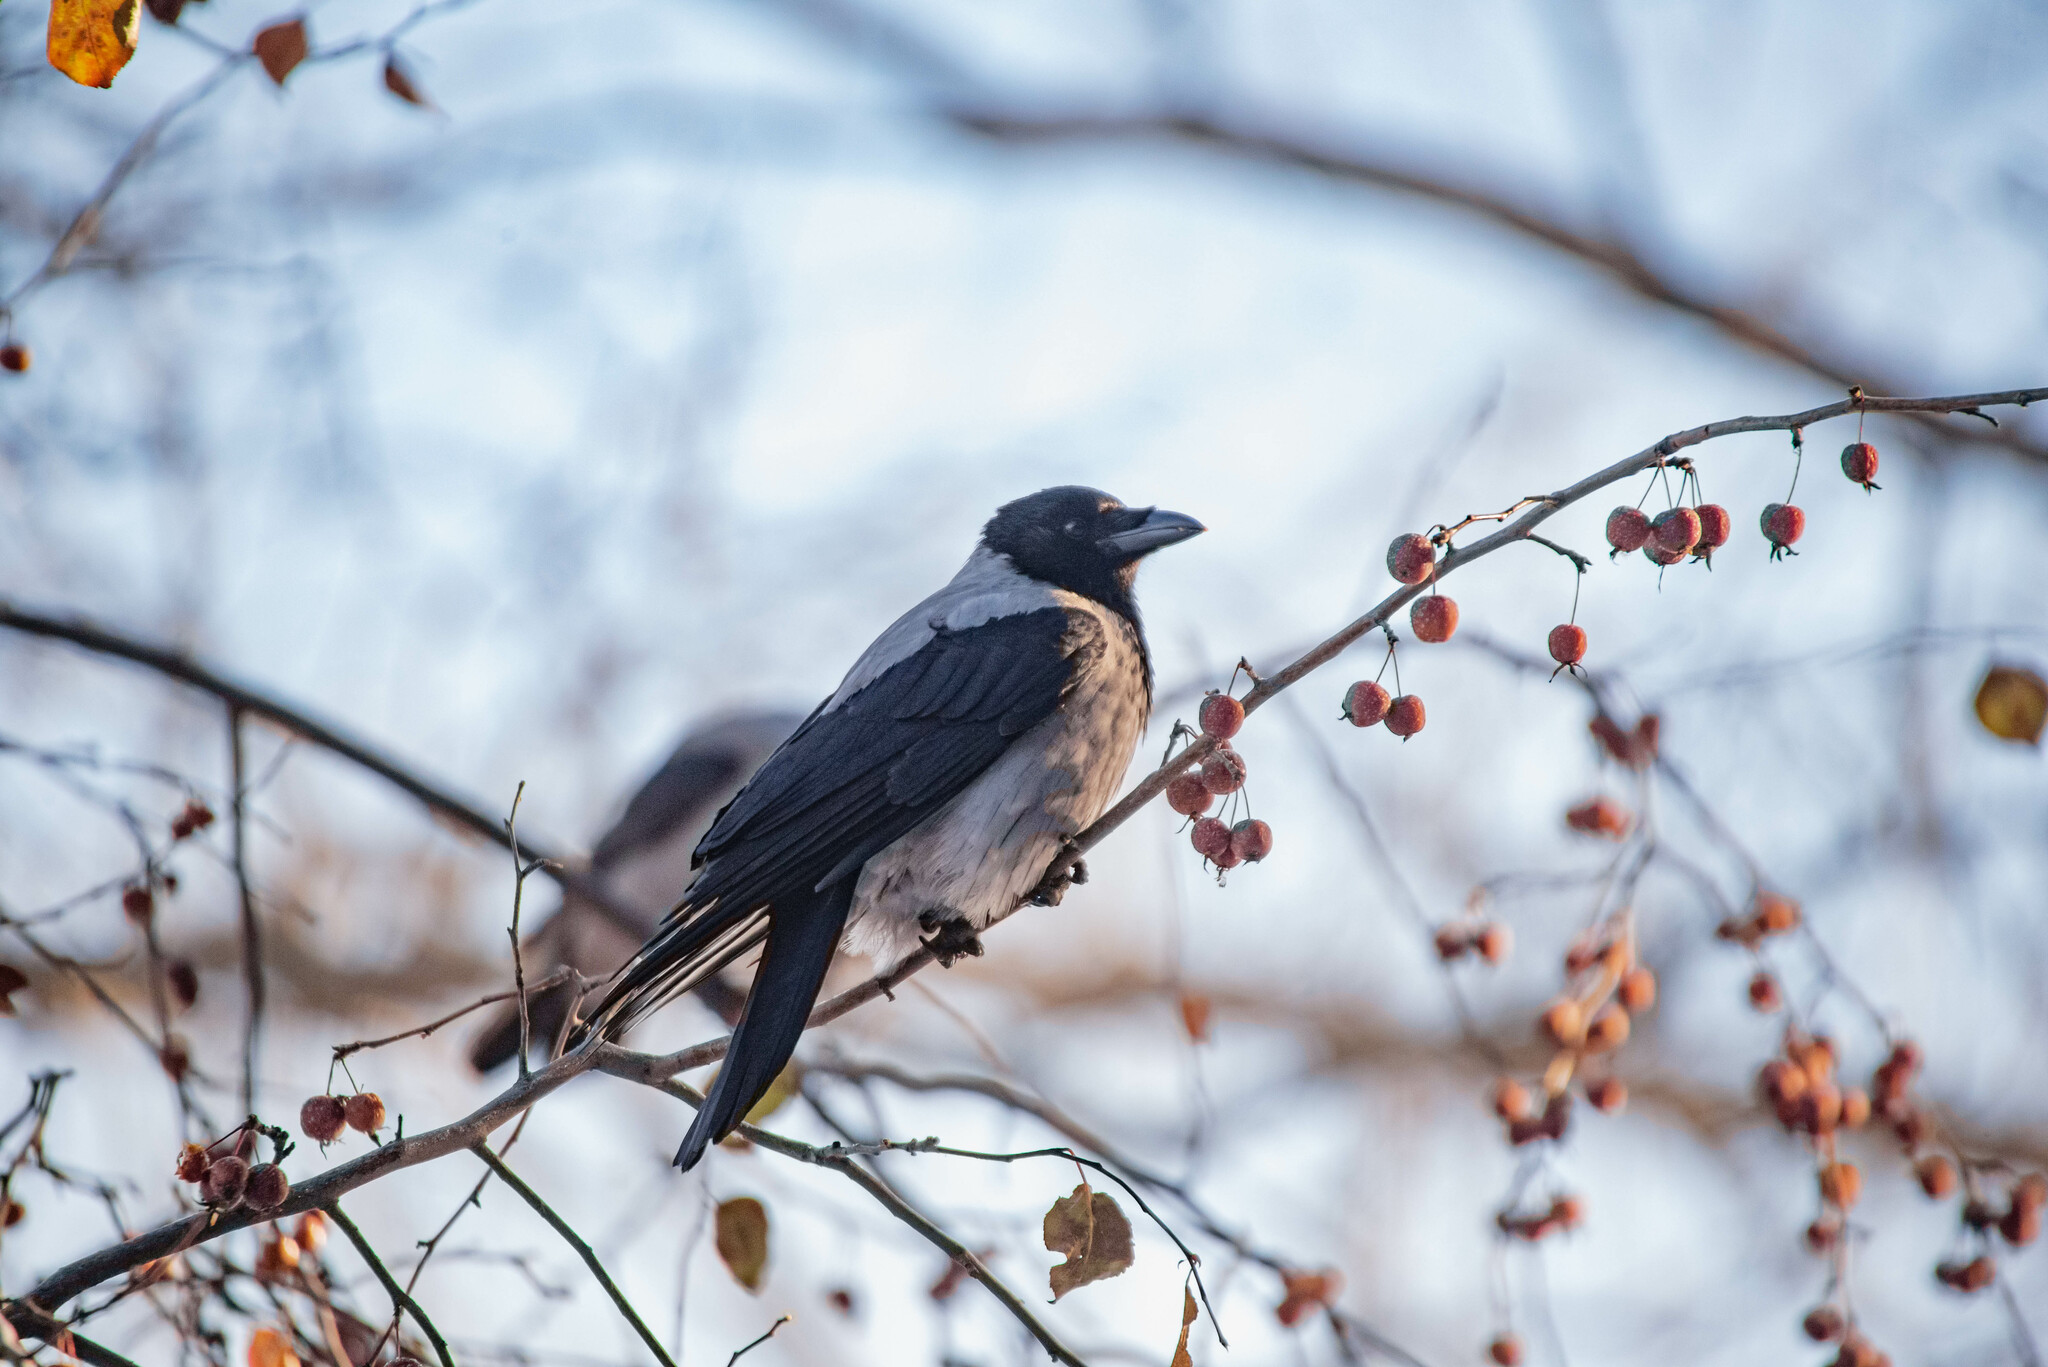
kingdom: Animalia
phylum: Chordata
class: Aves
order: Passeriformes
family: Corvidae
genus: Corvus
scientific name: Corvus cornix
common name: Hooded crow
